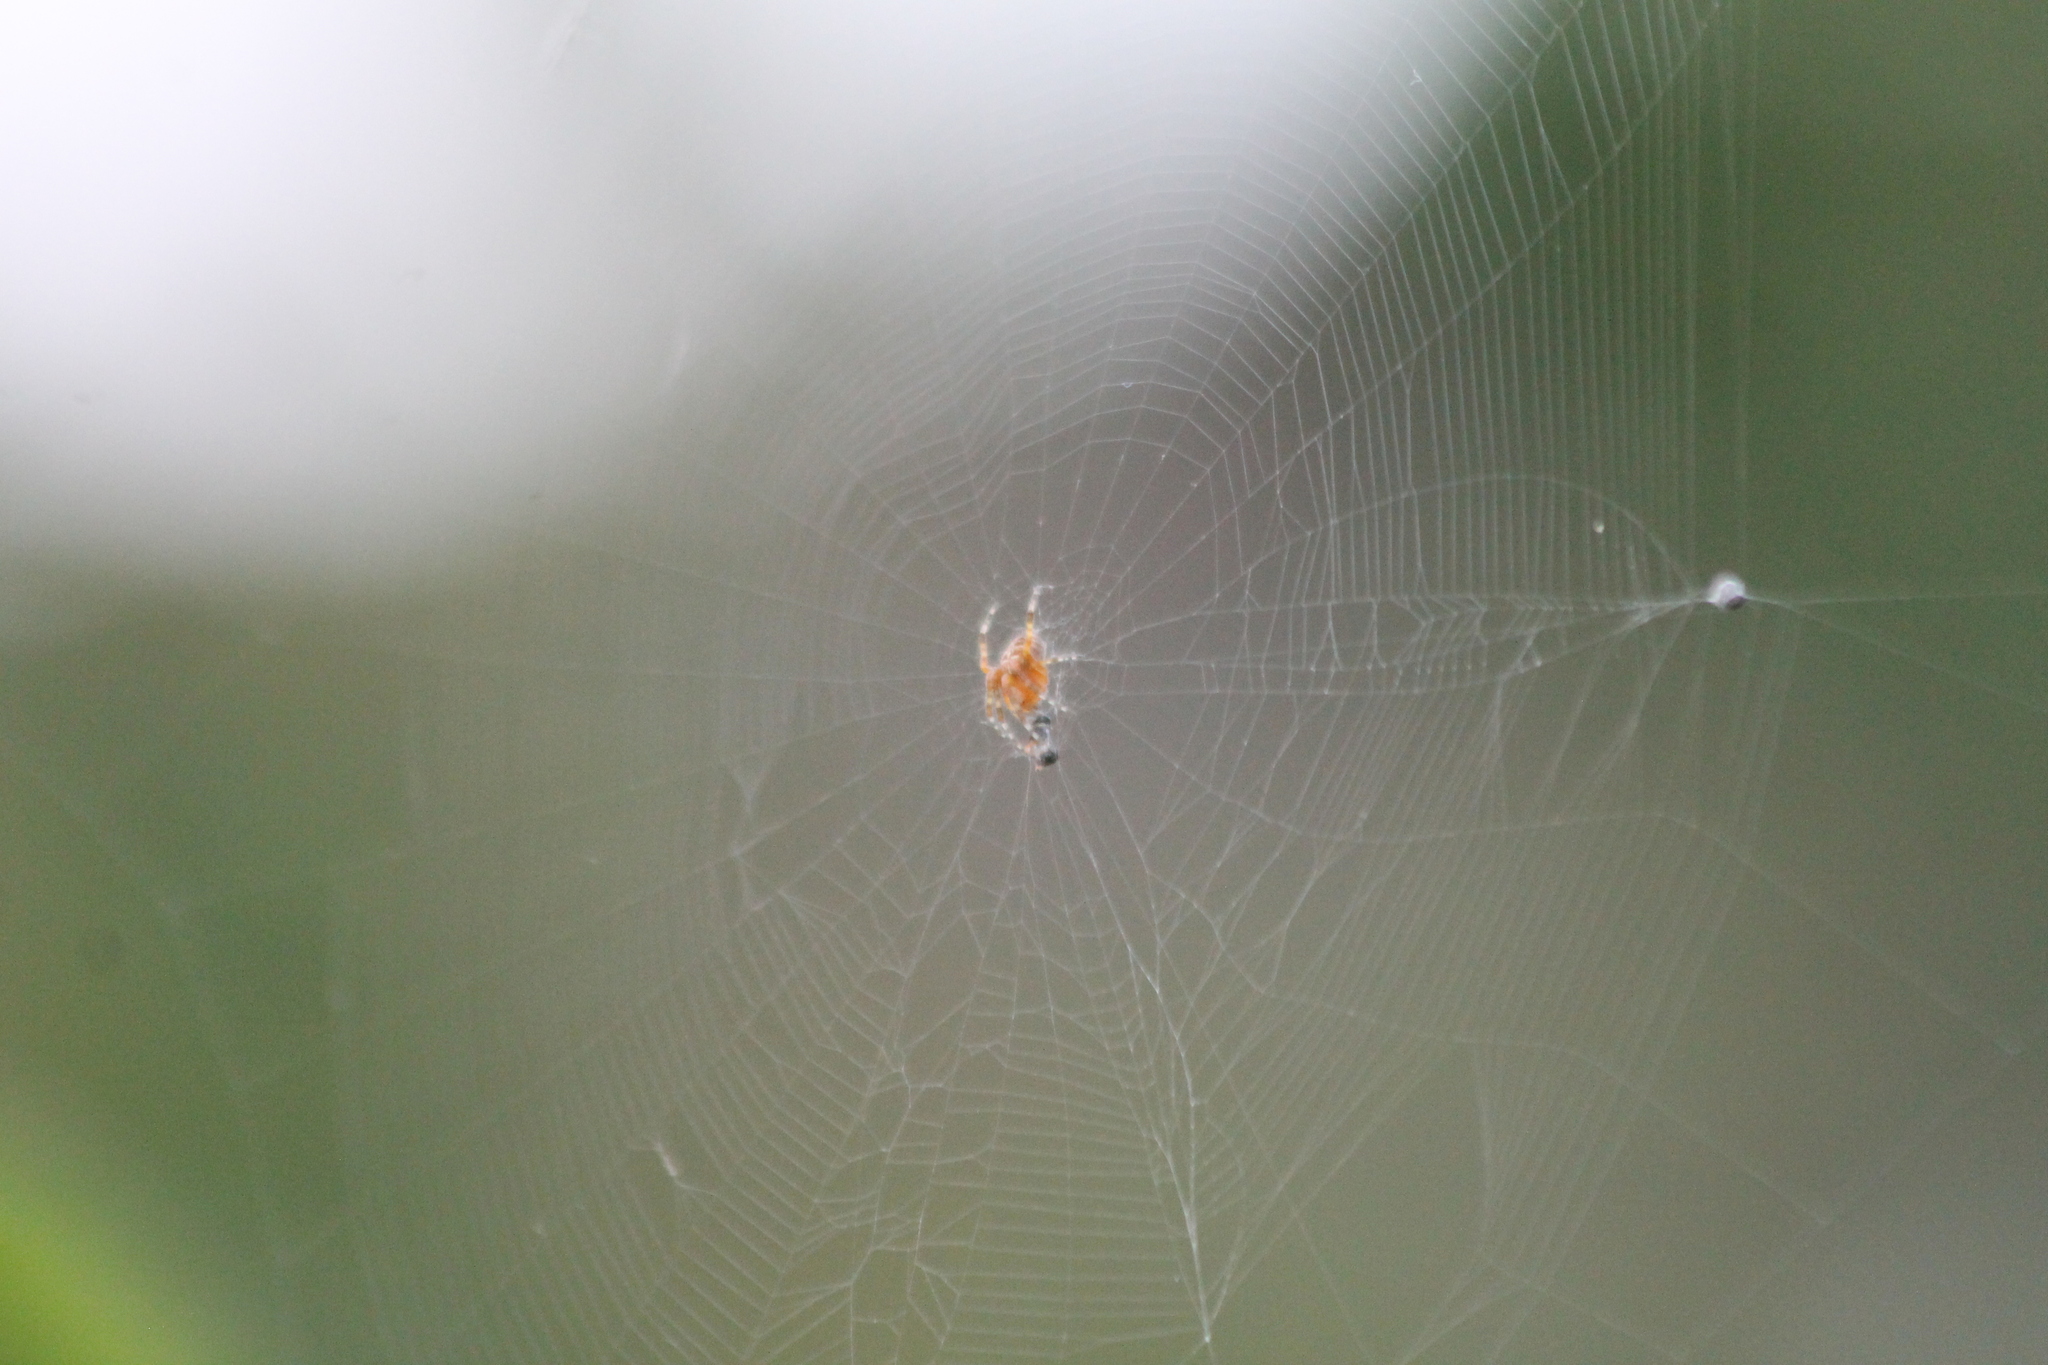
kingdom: Animalia
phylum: Arthropoda
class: Arachnida
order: Araneae
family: Araneidae
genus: Araneus
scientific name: Araneus diadematus
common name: Cross orbweaver
